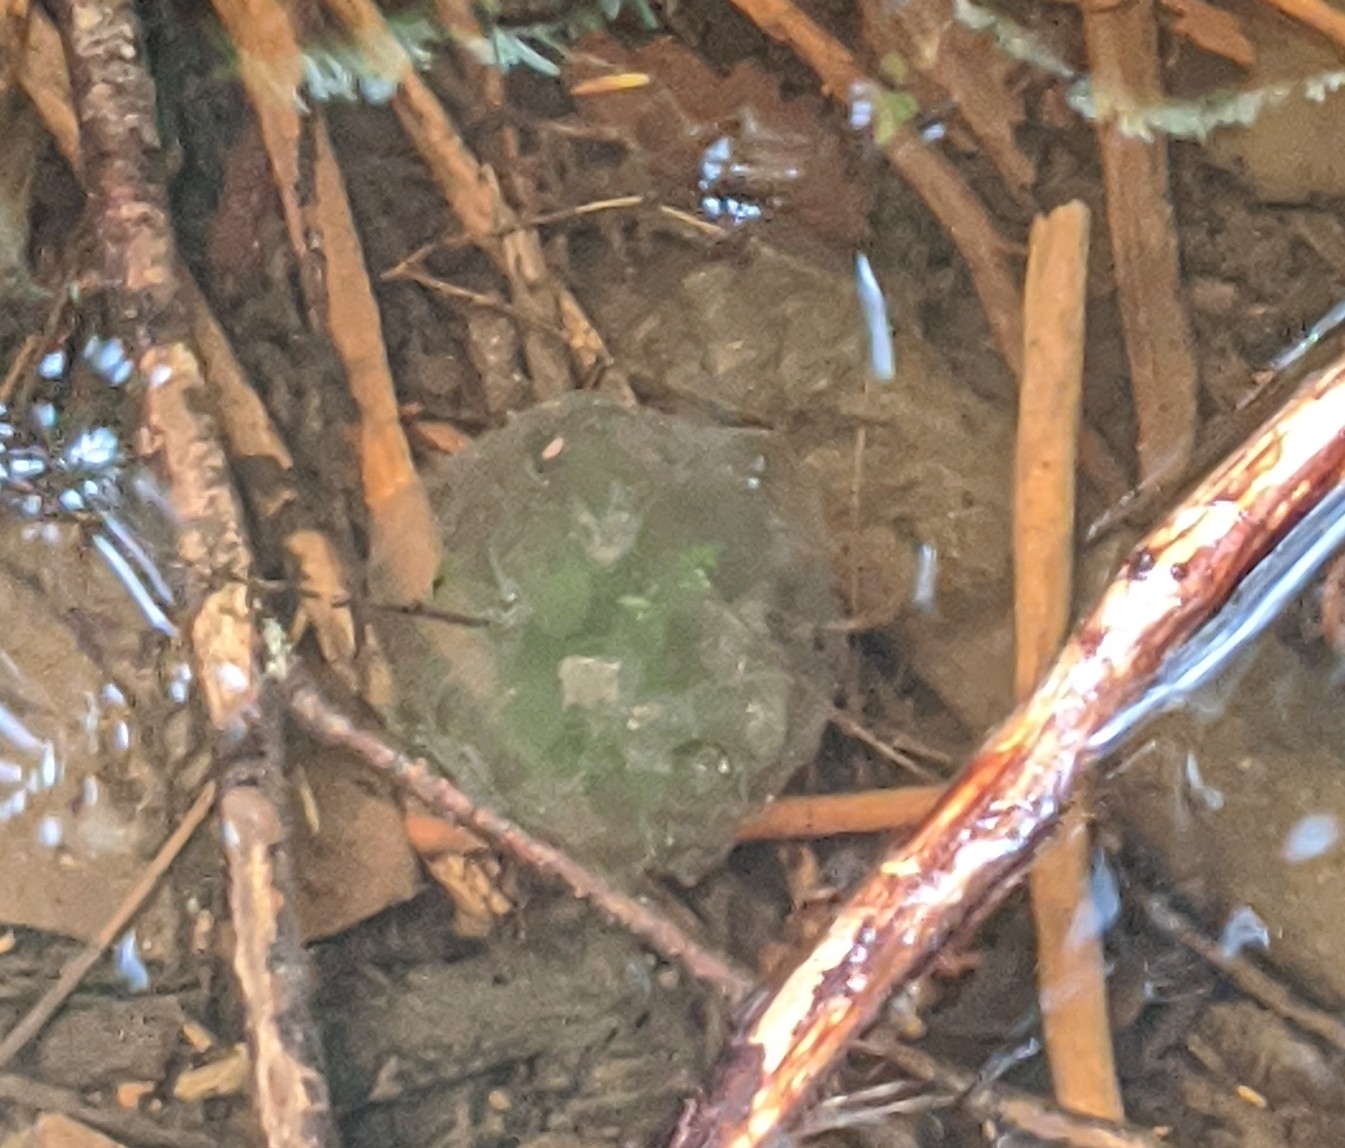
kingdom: Animalia
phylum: Chordata
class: Amphibia
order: Caudata
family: Ambystomatidae
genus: Ambystoma
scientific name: Ambystoma gracile
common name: Northwestern salamander
